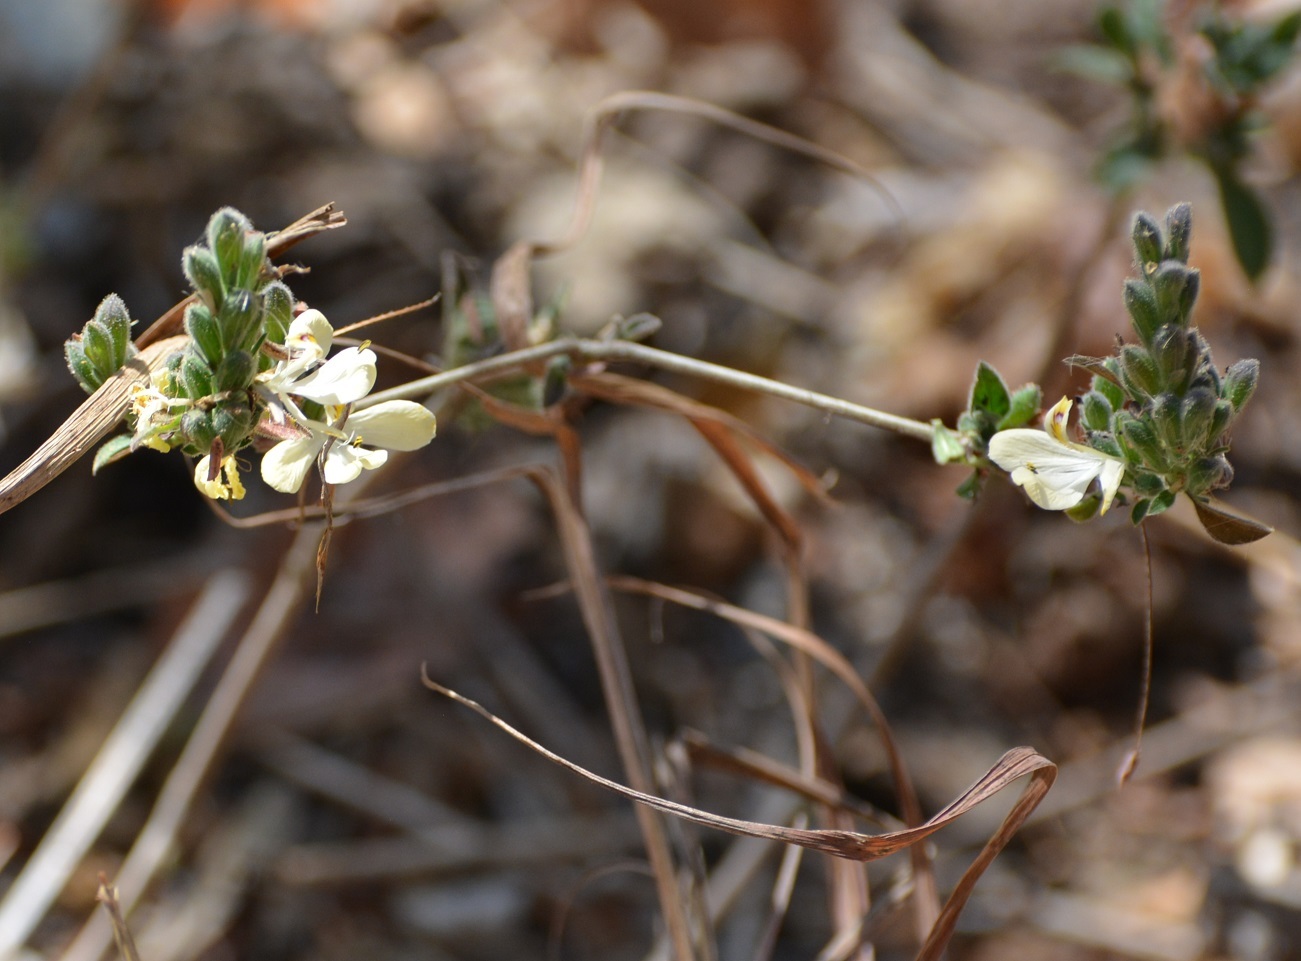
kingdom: Plantae
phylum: Tracheophyta
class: Magnoliopsida
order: Lamiales
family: Acanthaceae
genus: Henrya
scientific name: Henrya insularis
